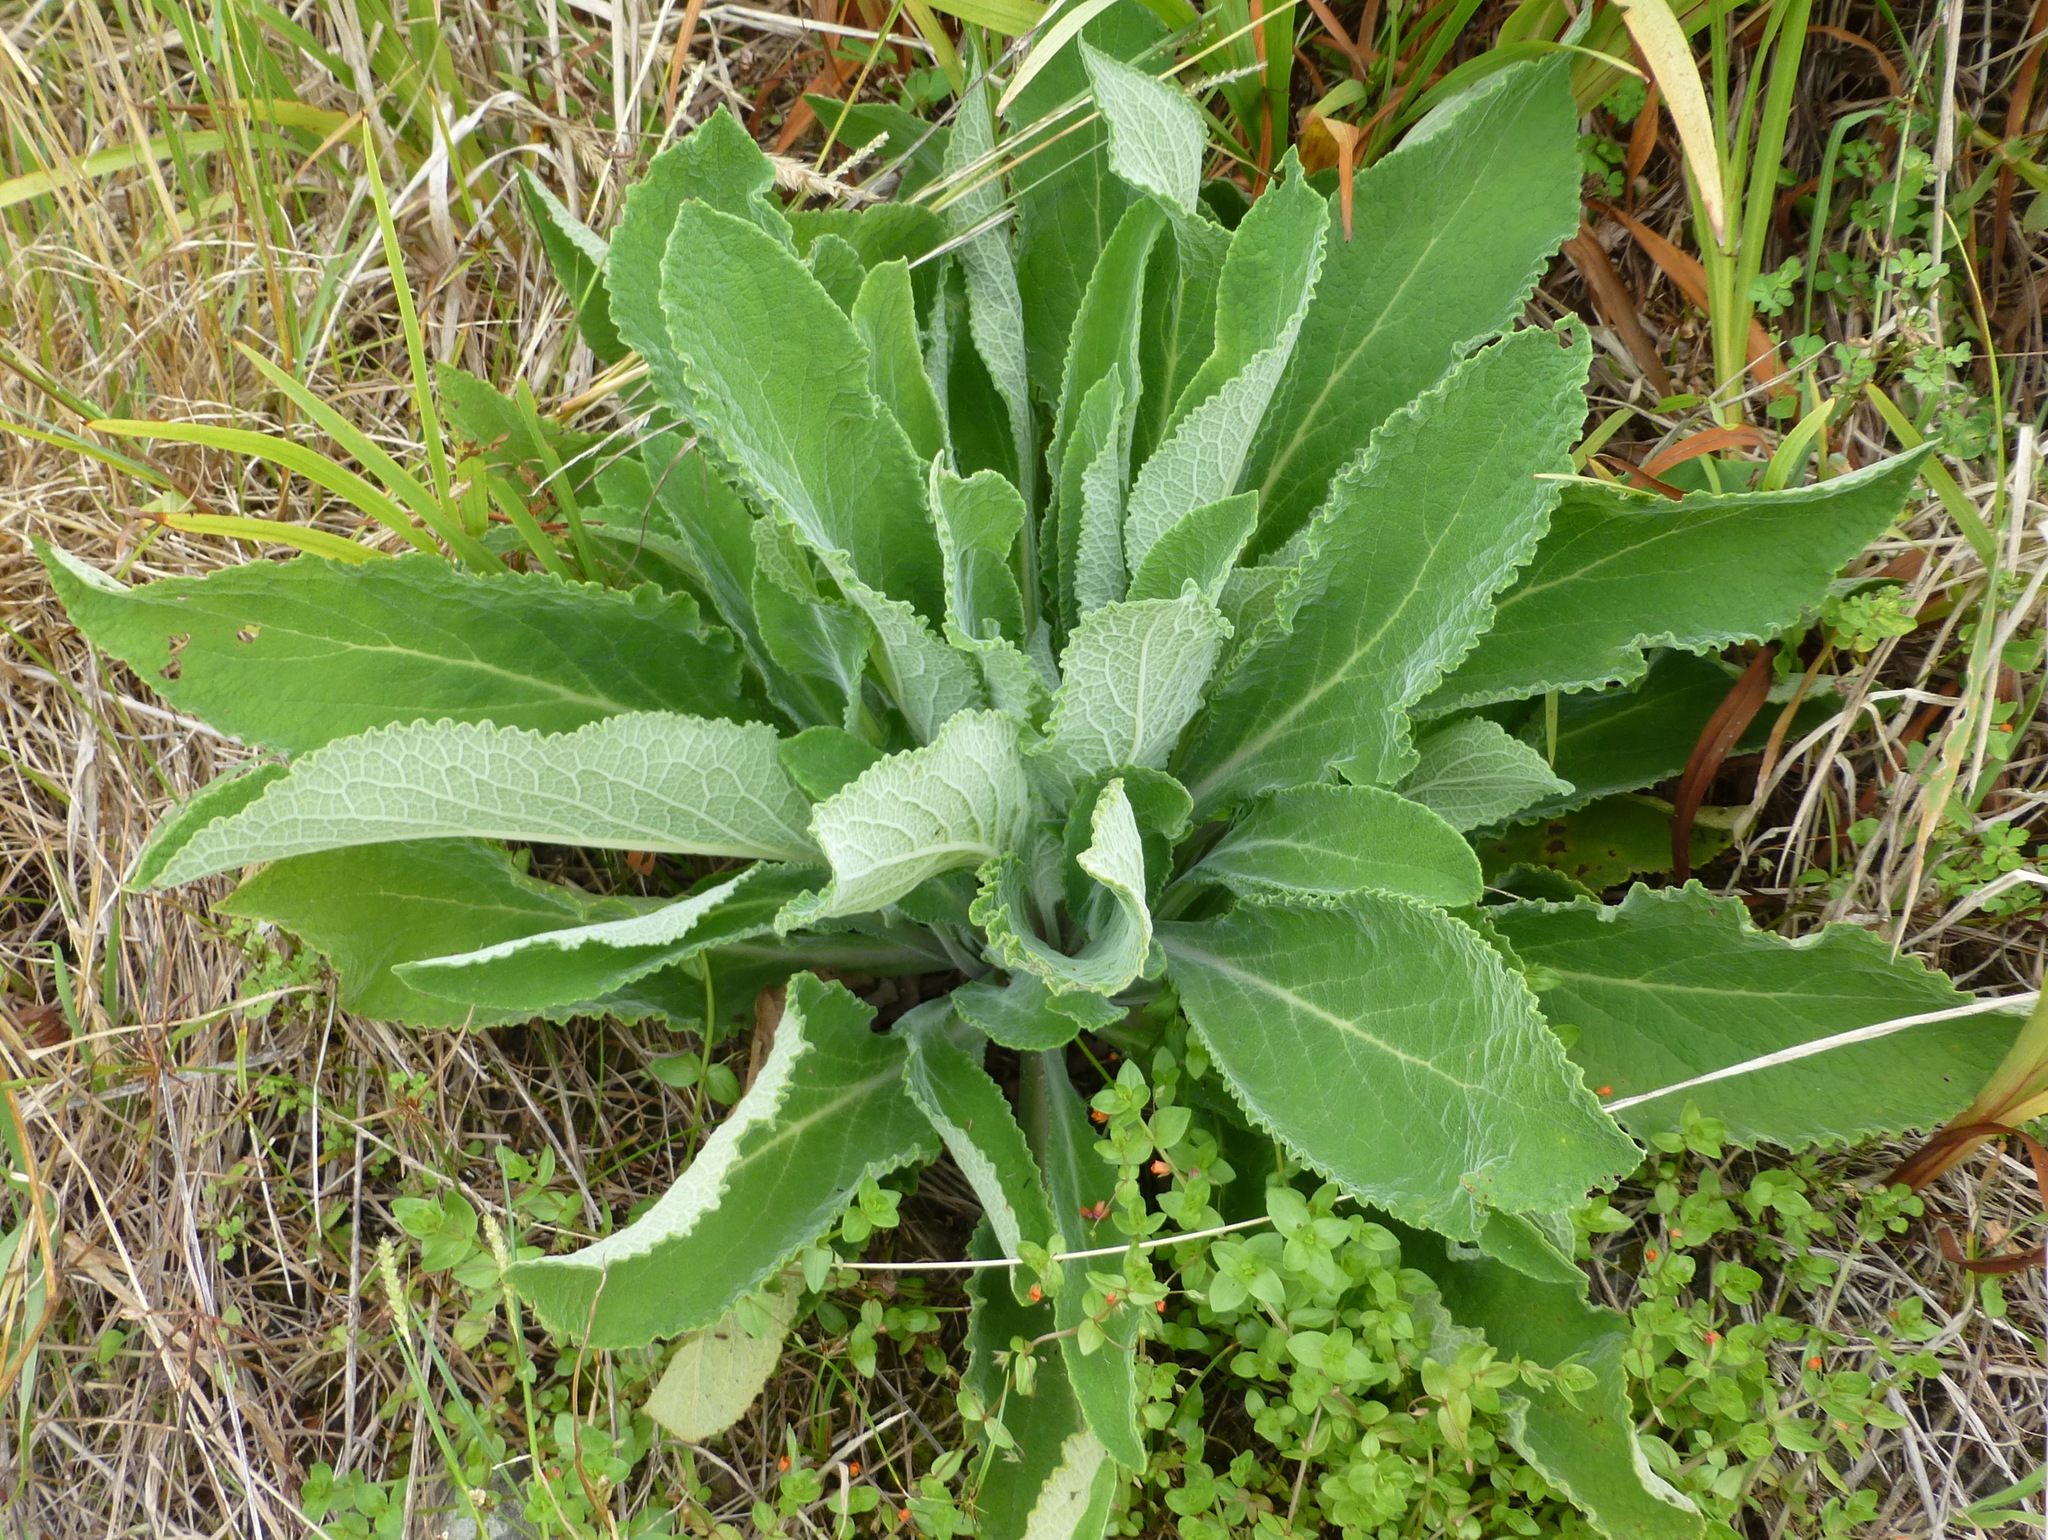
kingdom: Plantae
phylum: Tracheophyta
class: Magnoliopsida
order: Lamiales
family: Plantaginaceae
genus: Digitalis
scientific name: Digitalis purpurea
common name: Foxglove
